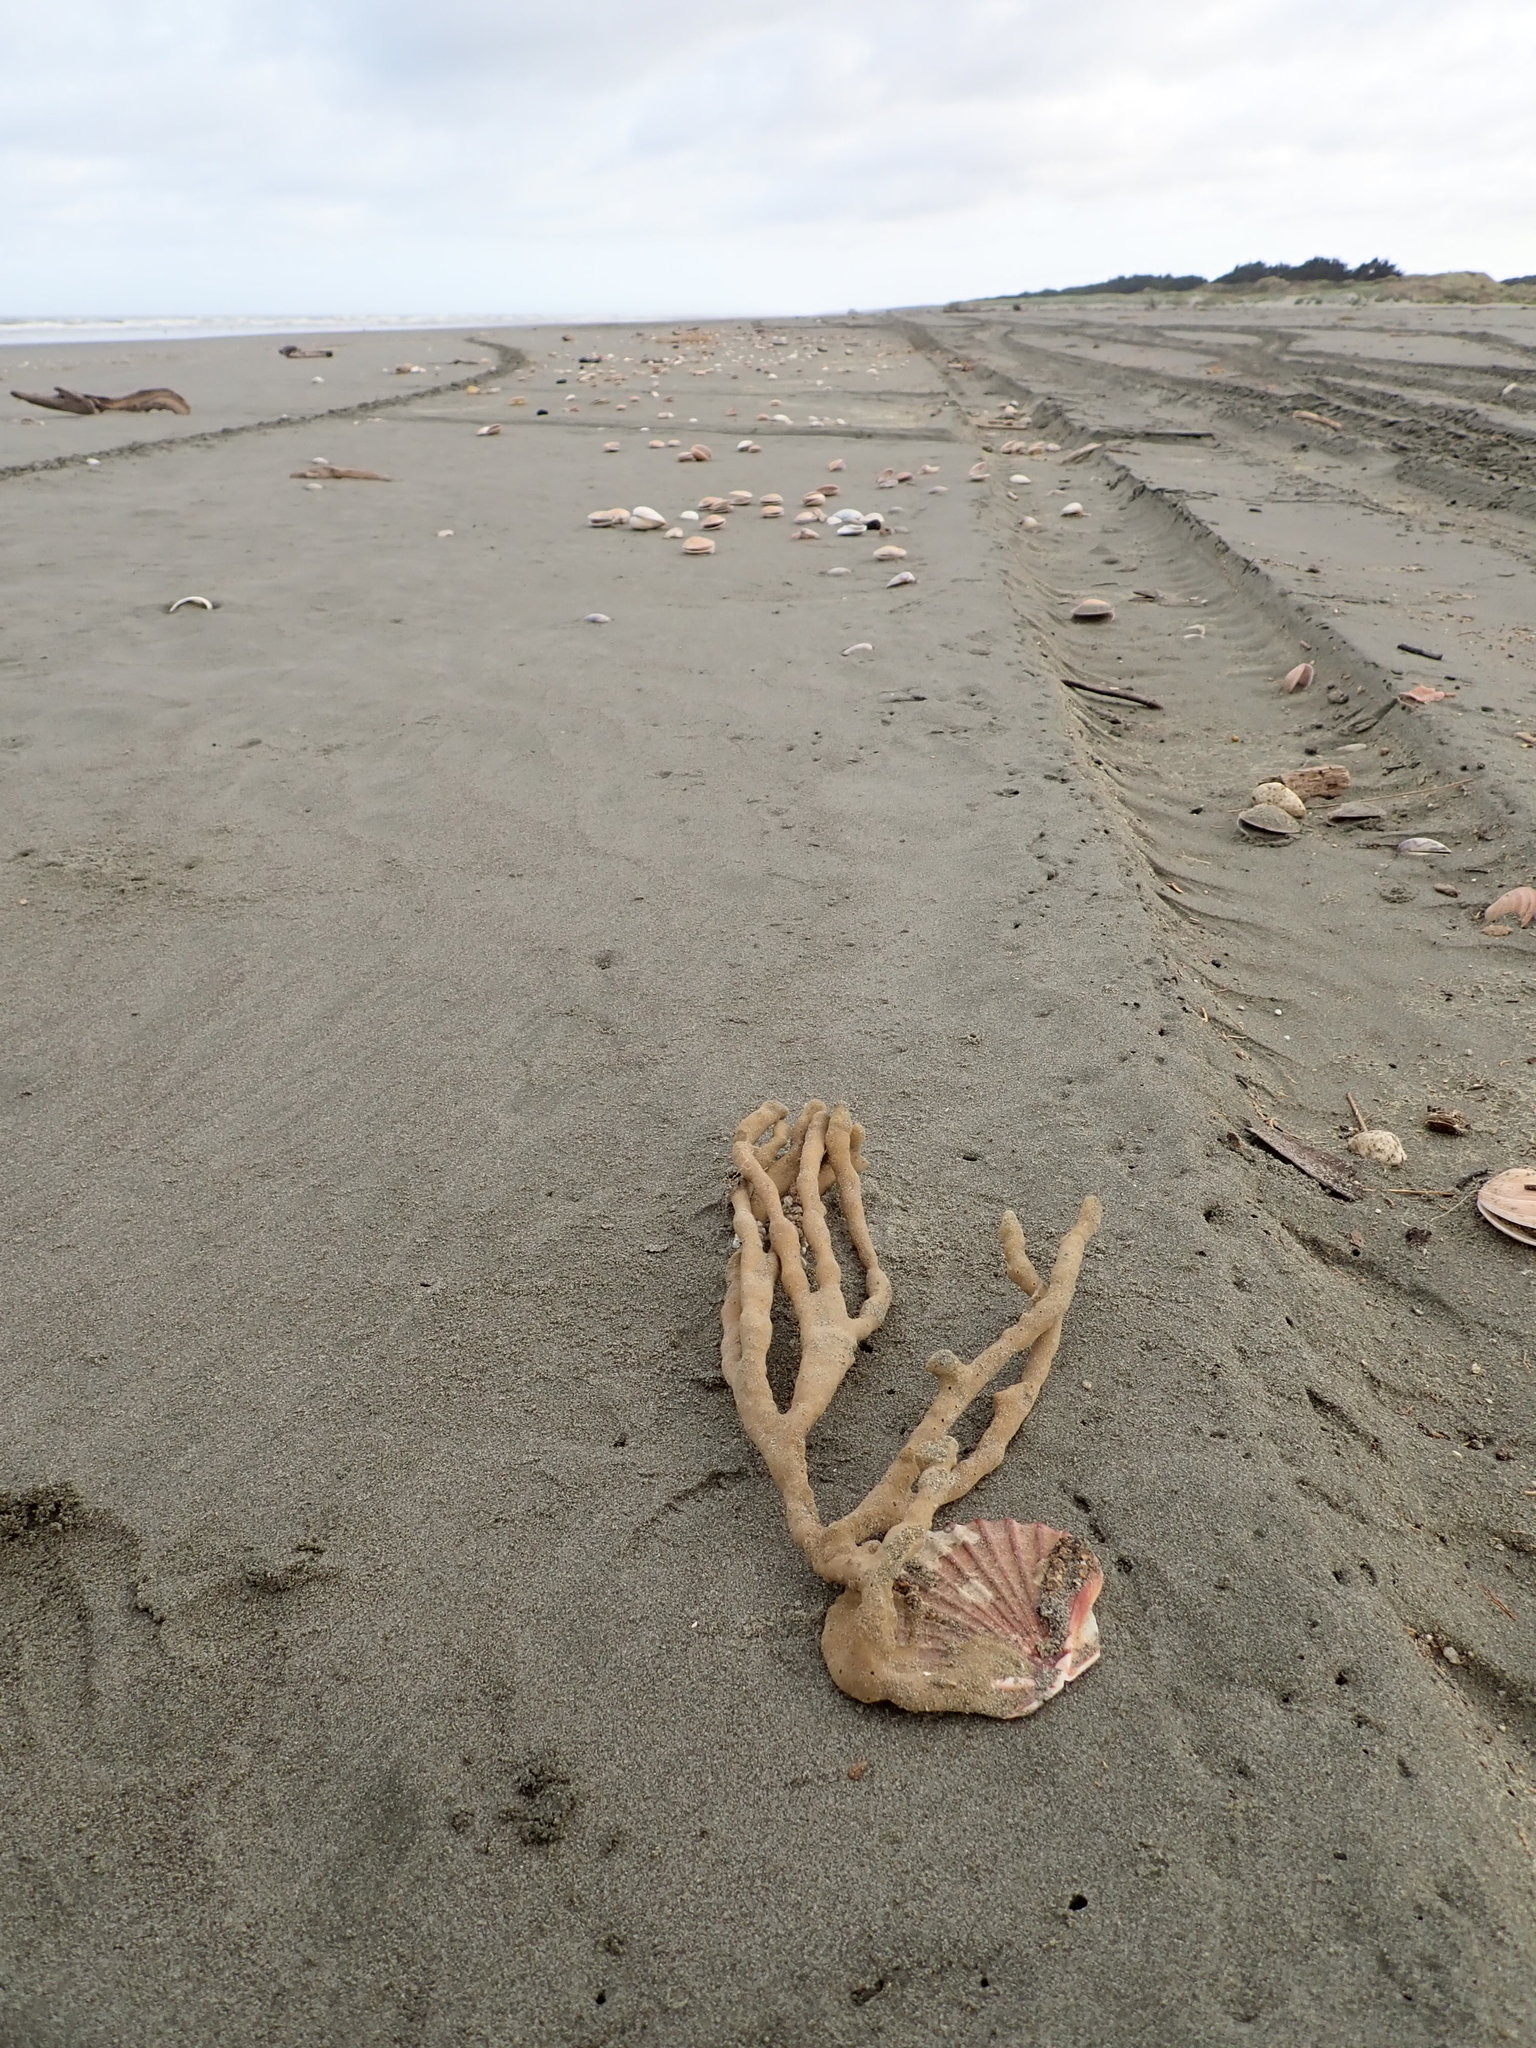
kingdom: Animalia
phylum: Porifera
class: Demospongiae
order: Haplosclerida
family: Callyspongiidae
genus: Callyspongia
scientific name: Callyspongia nuda
